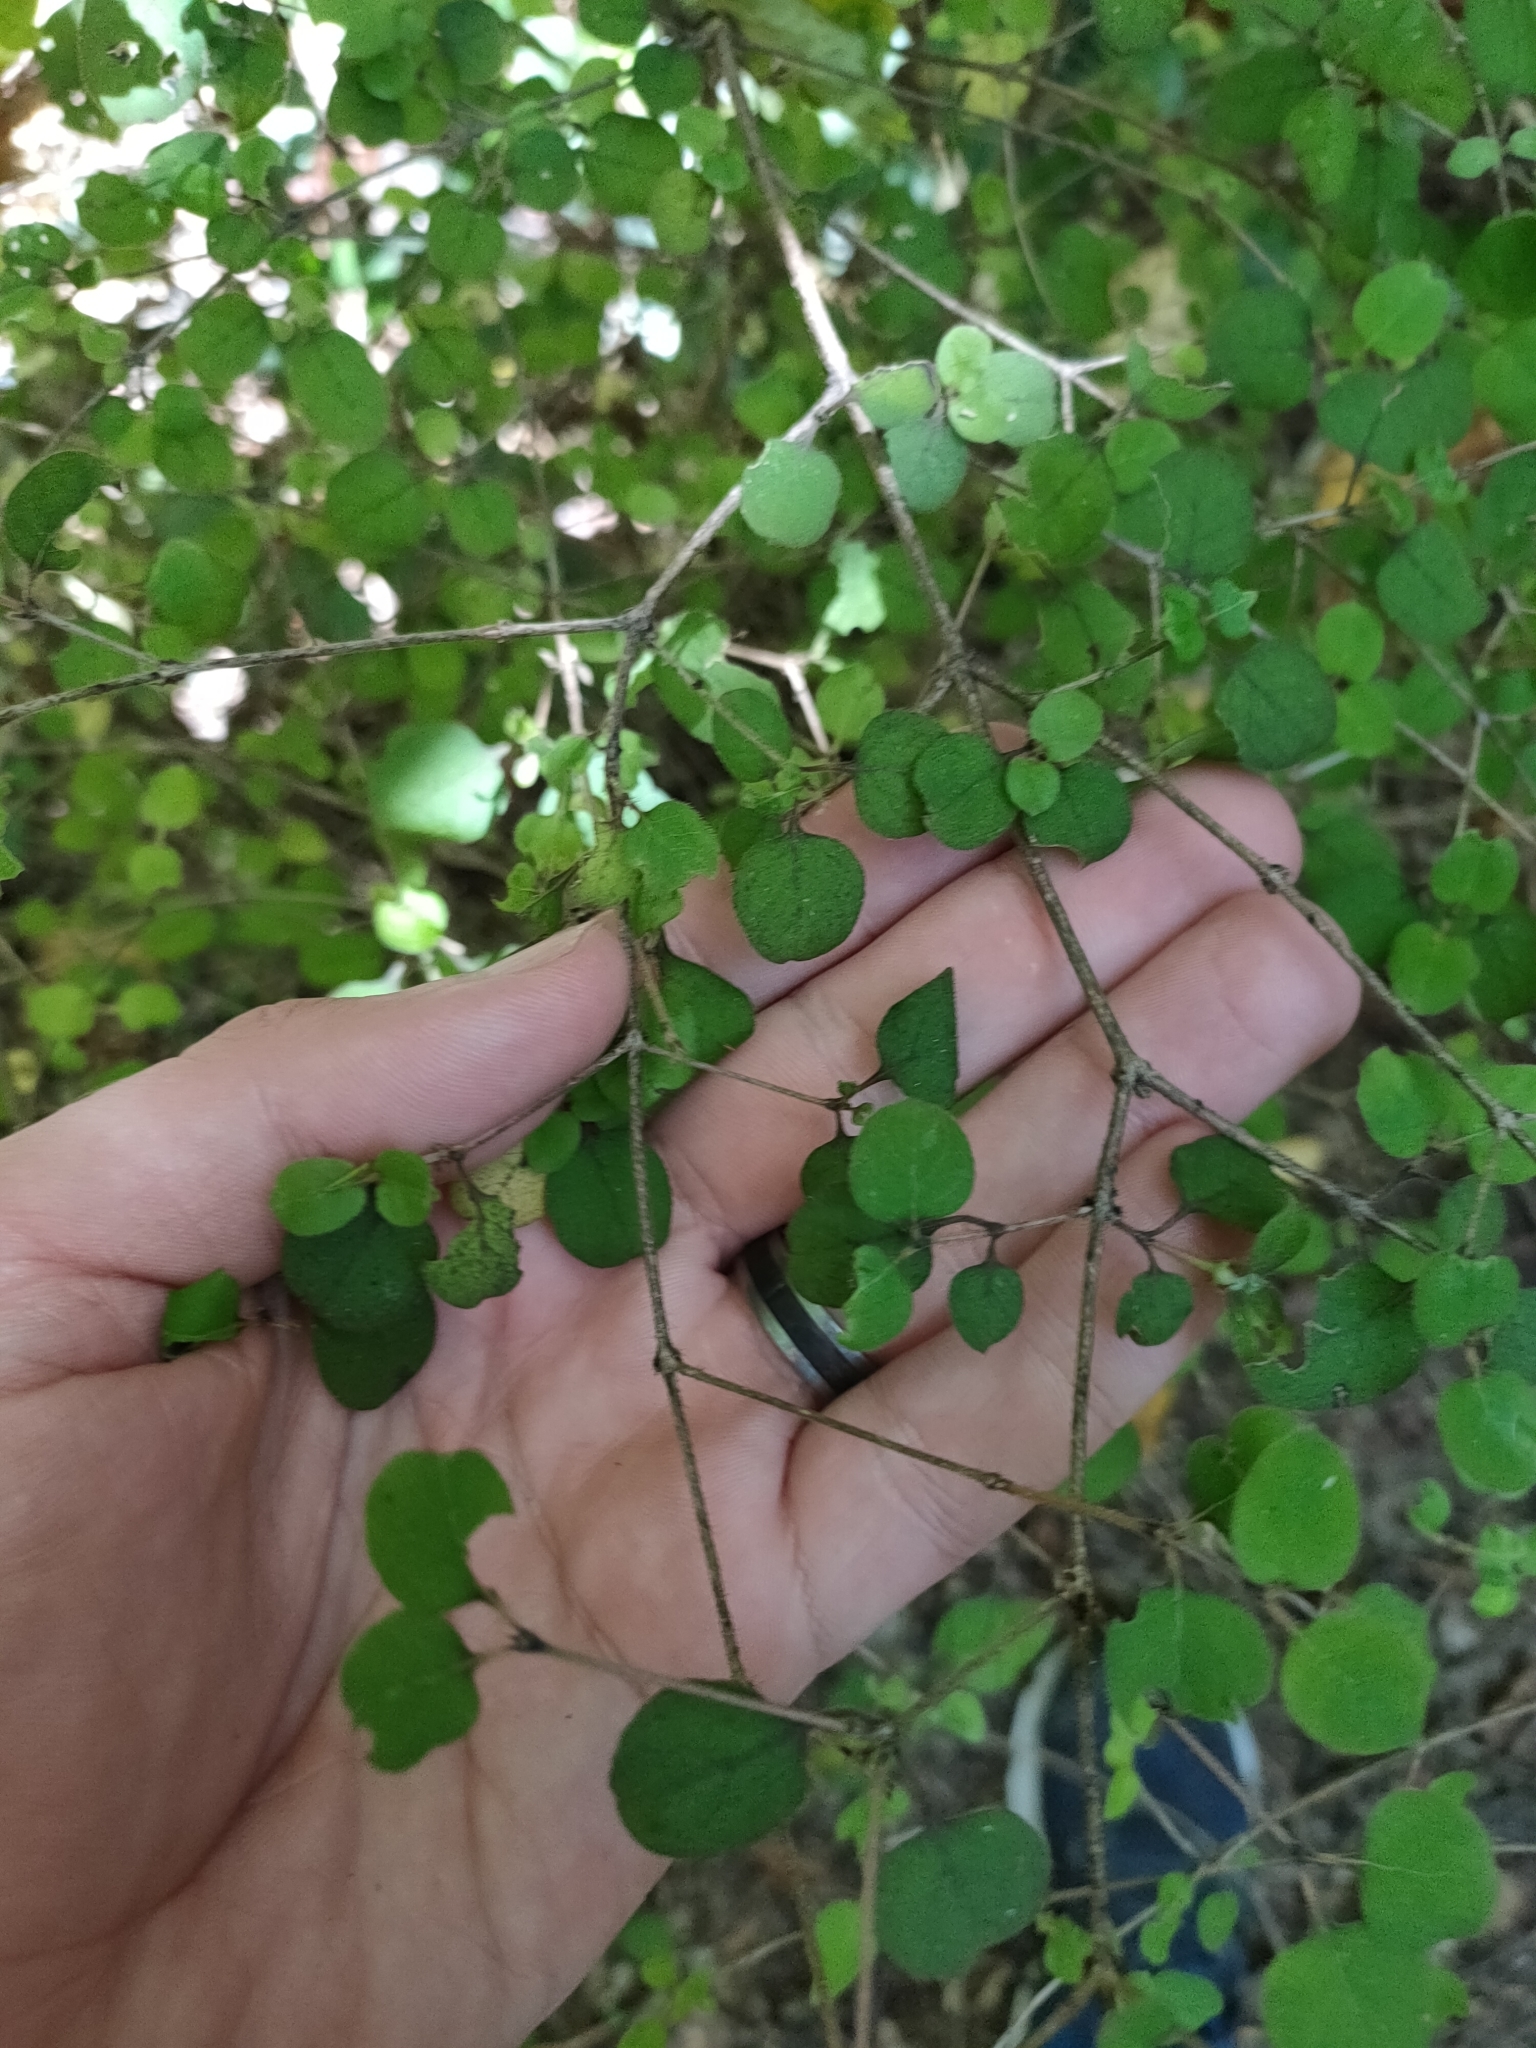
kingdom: Plantae
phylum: Tracheophyta
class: Magnoliopsida
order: Gentianales
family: Rubiaceae
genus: Coprosma
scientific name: Coprosma rotundifolia
